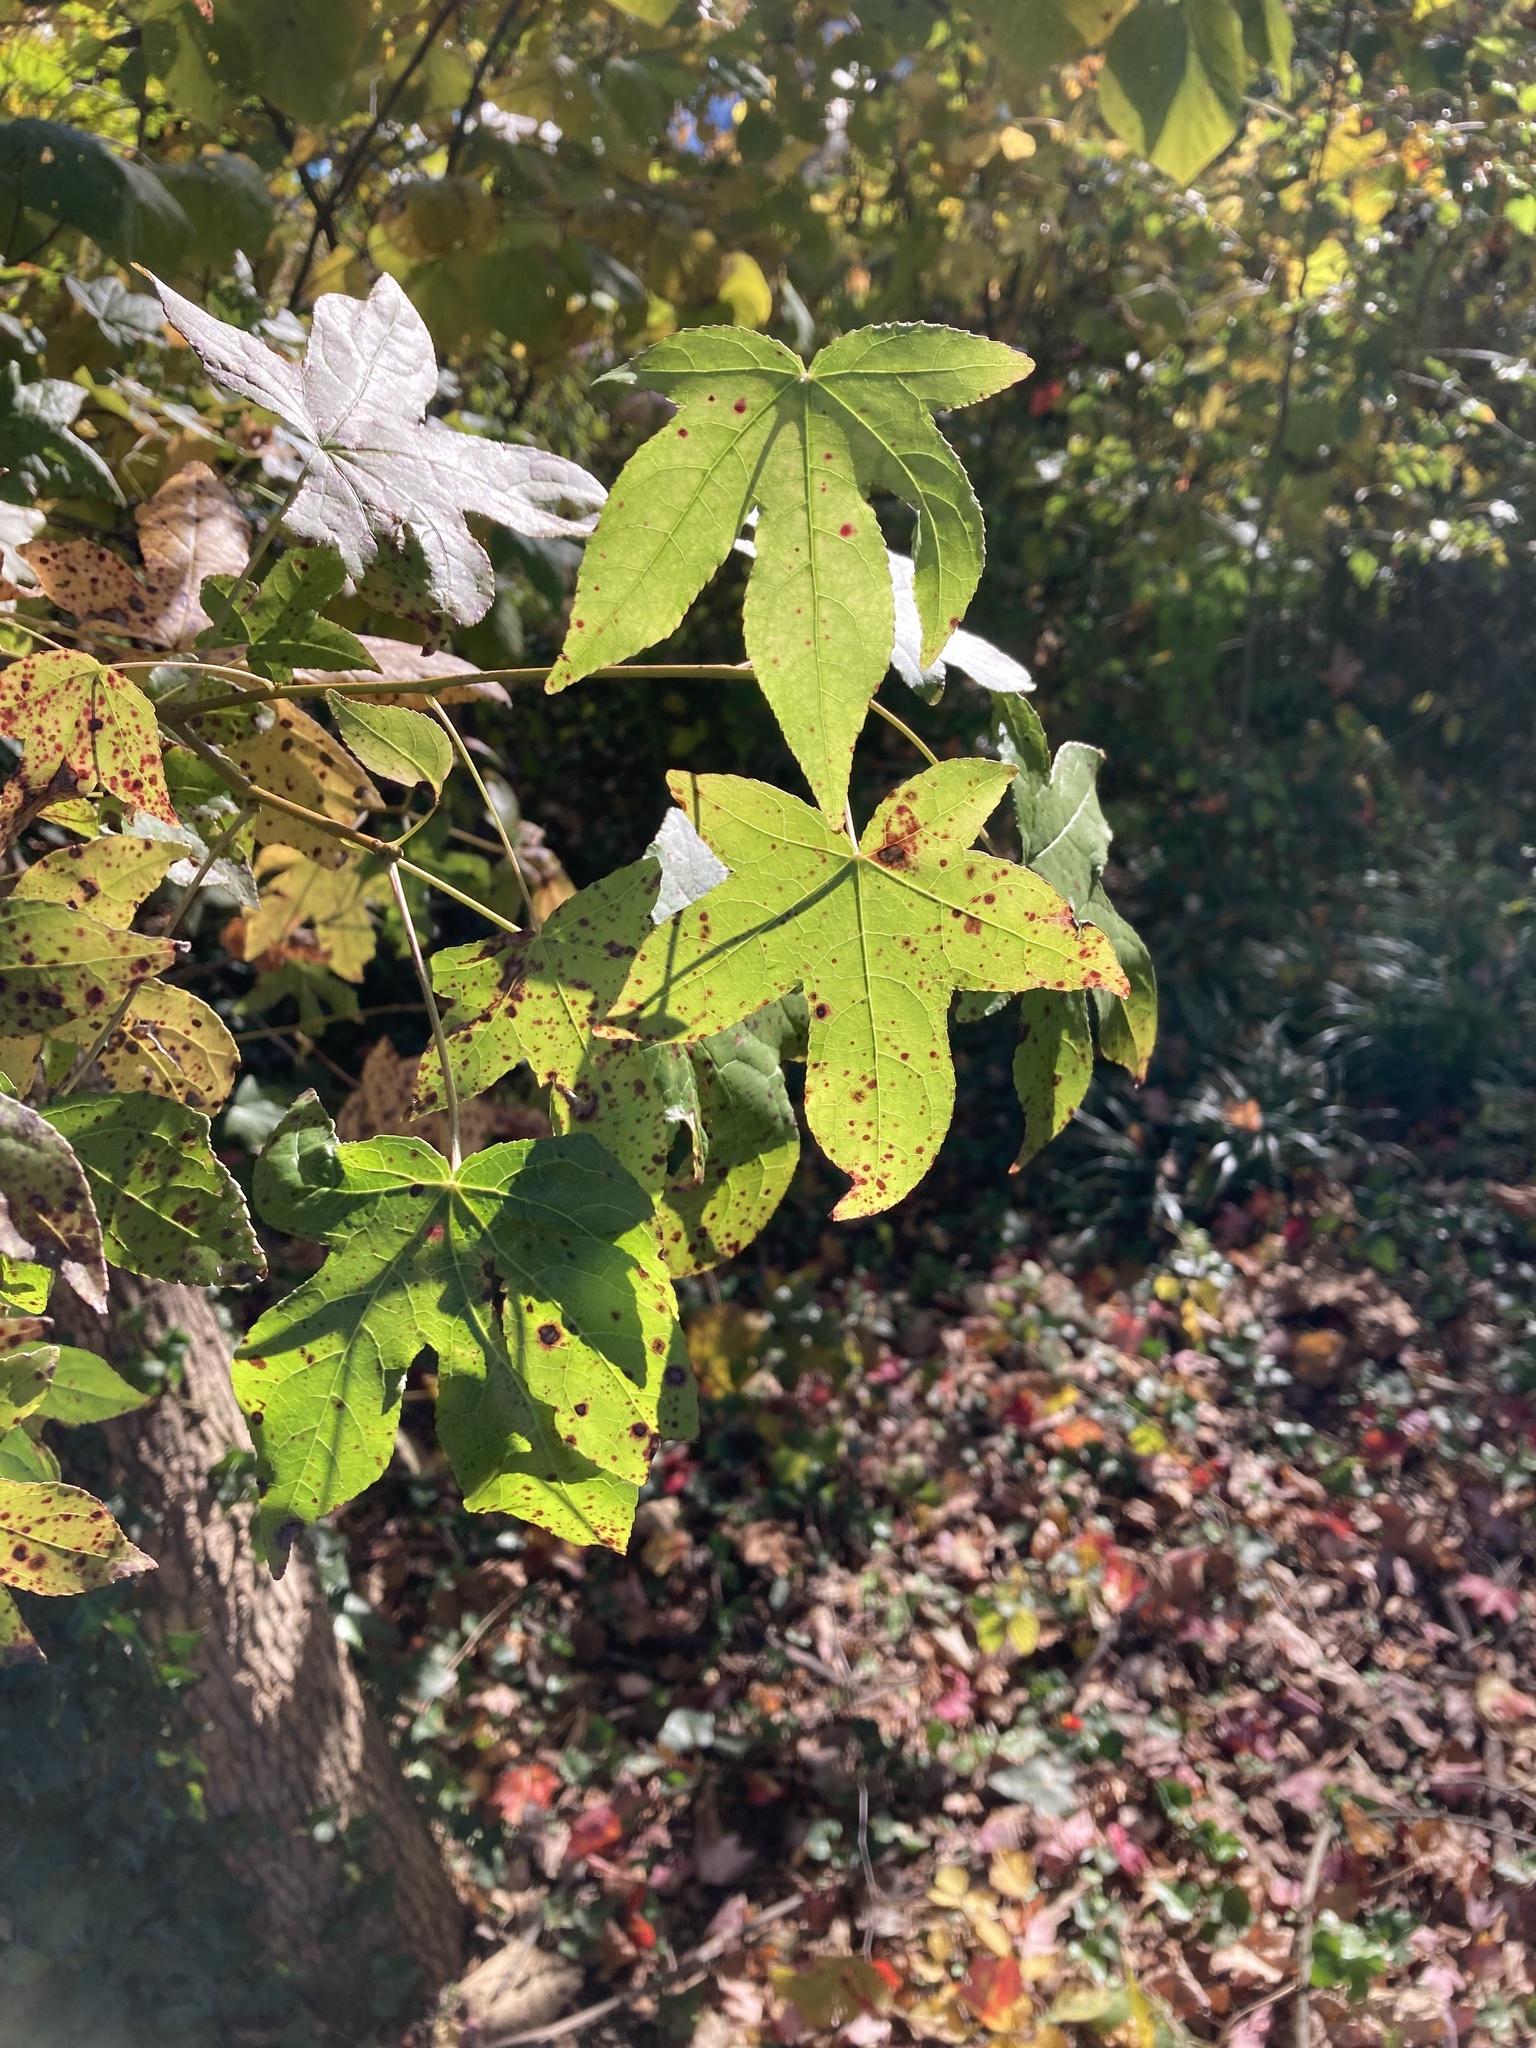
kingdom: Plantae
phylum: Tracheophyta
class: Magnoliopsida
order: Saxifragales
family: Altingiaceae
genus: Liquidambar
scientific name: Liquidambar styraciflua
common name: Sweet gum
